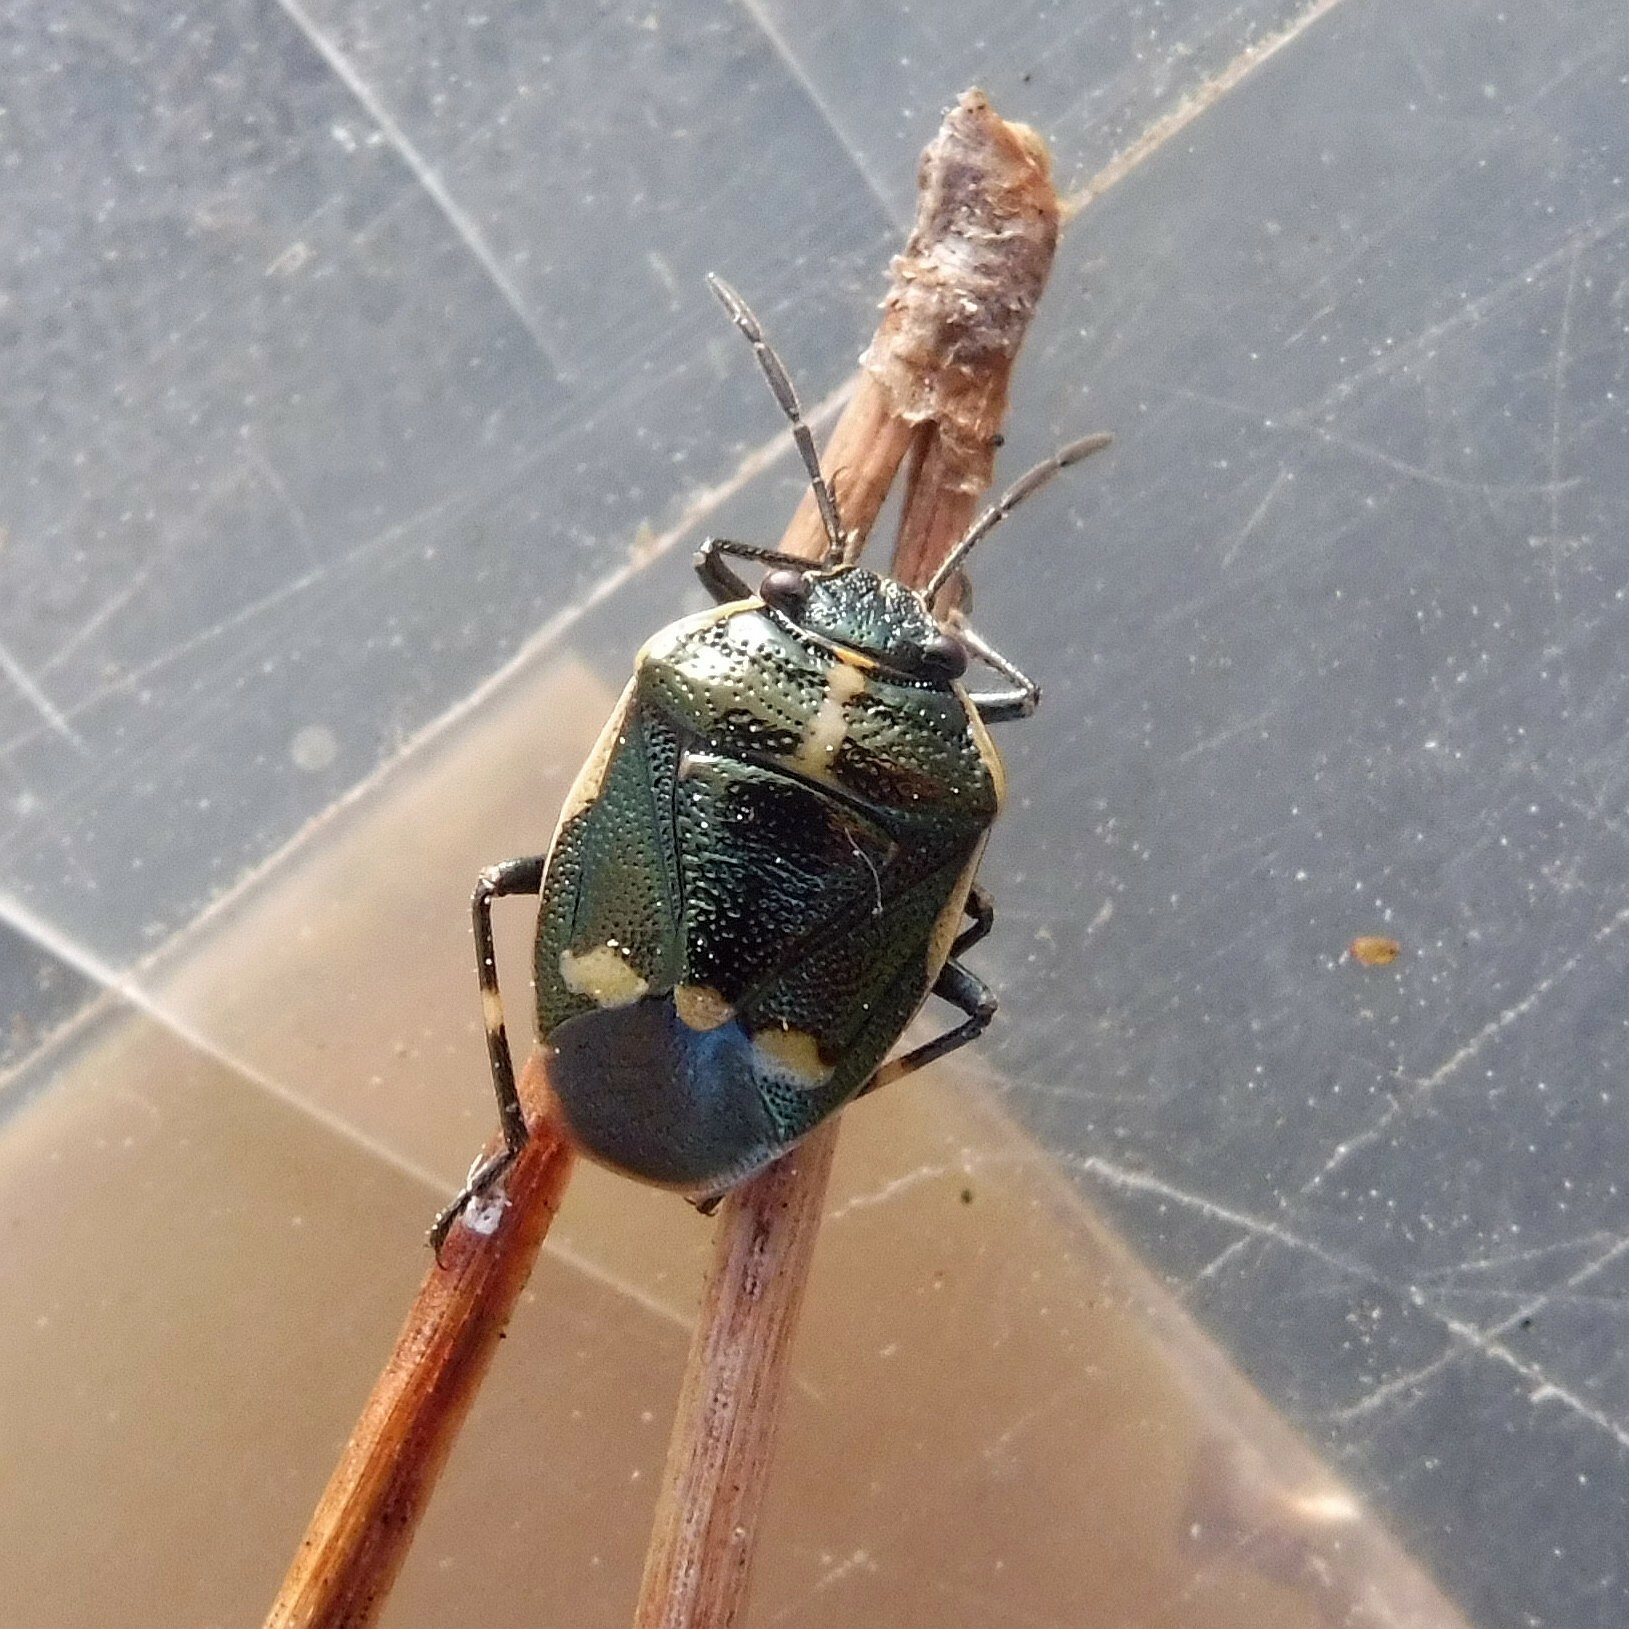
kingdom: Animalia
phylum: Arthropoda
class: Insecta
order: Hemiptera
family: Pentatomidae
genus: Eurydema
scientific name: Eurydema oleracea
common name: Cabbage bug
